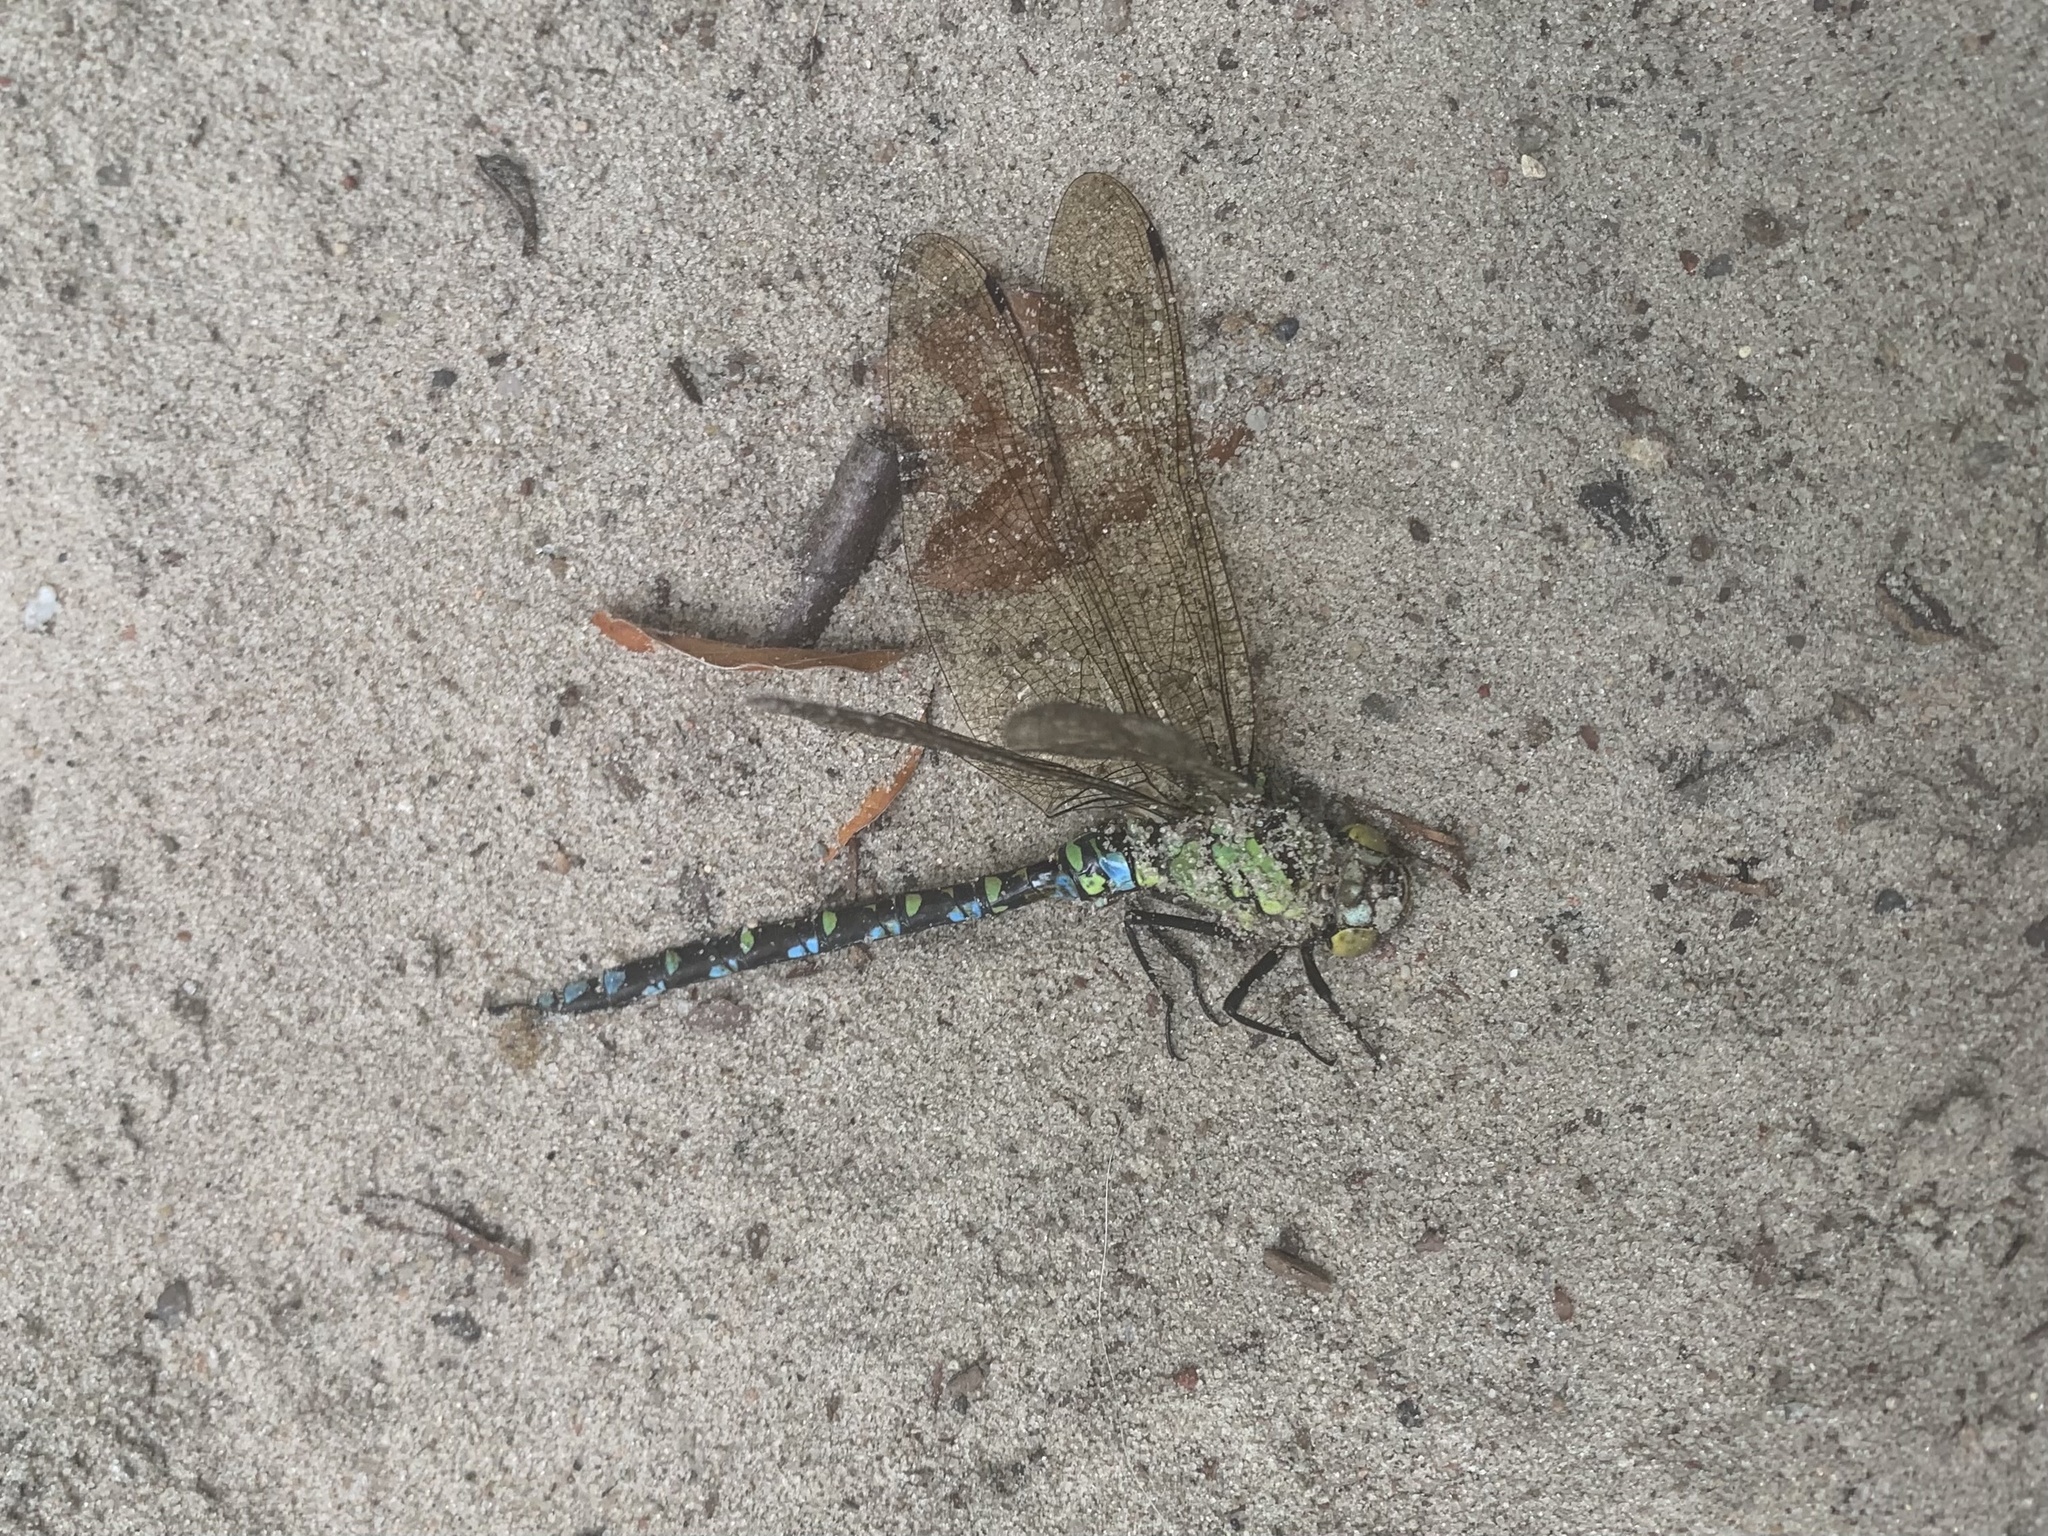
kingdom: Animalia
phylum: Arthropoda
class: Insecta
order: Odonata
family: Aeshnidae
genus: Aeshna
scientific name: Aeshna cyanea
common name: Southern hawker
